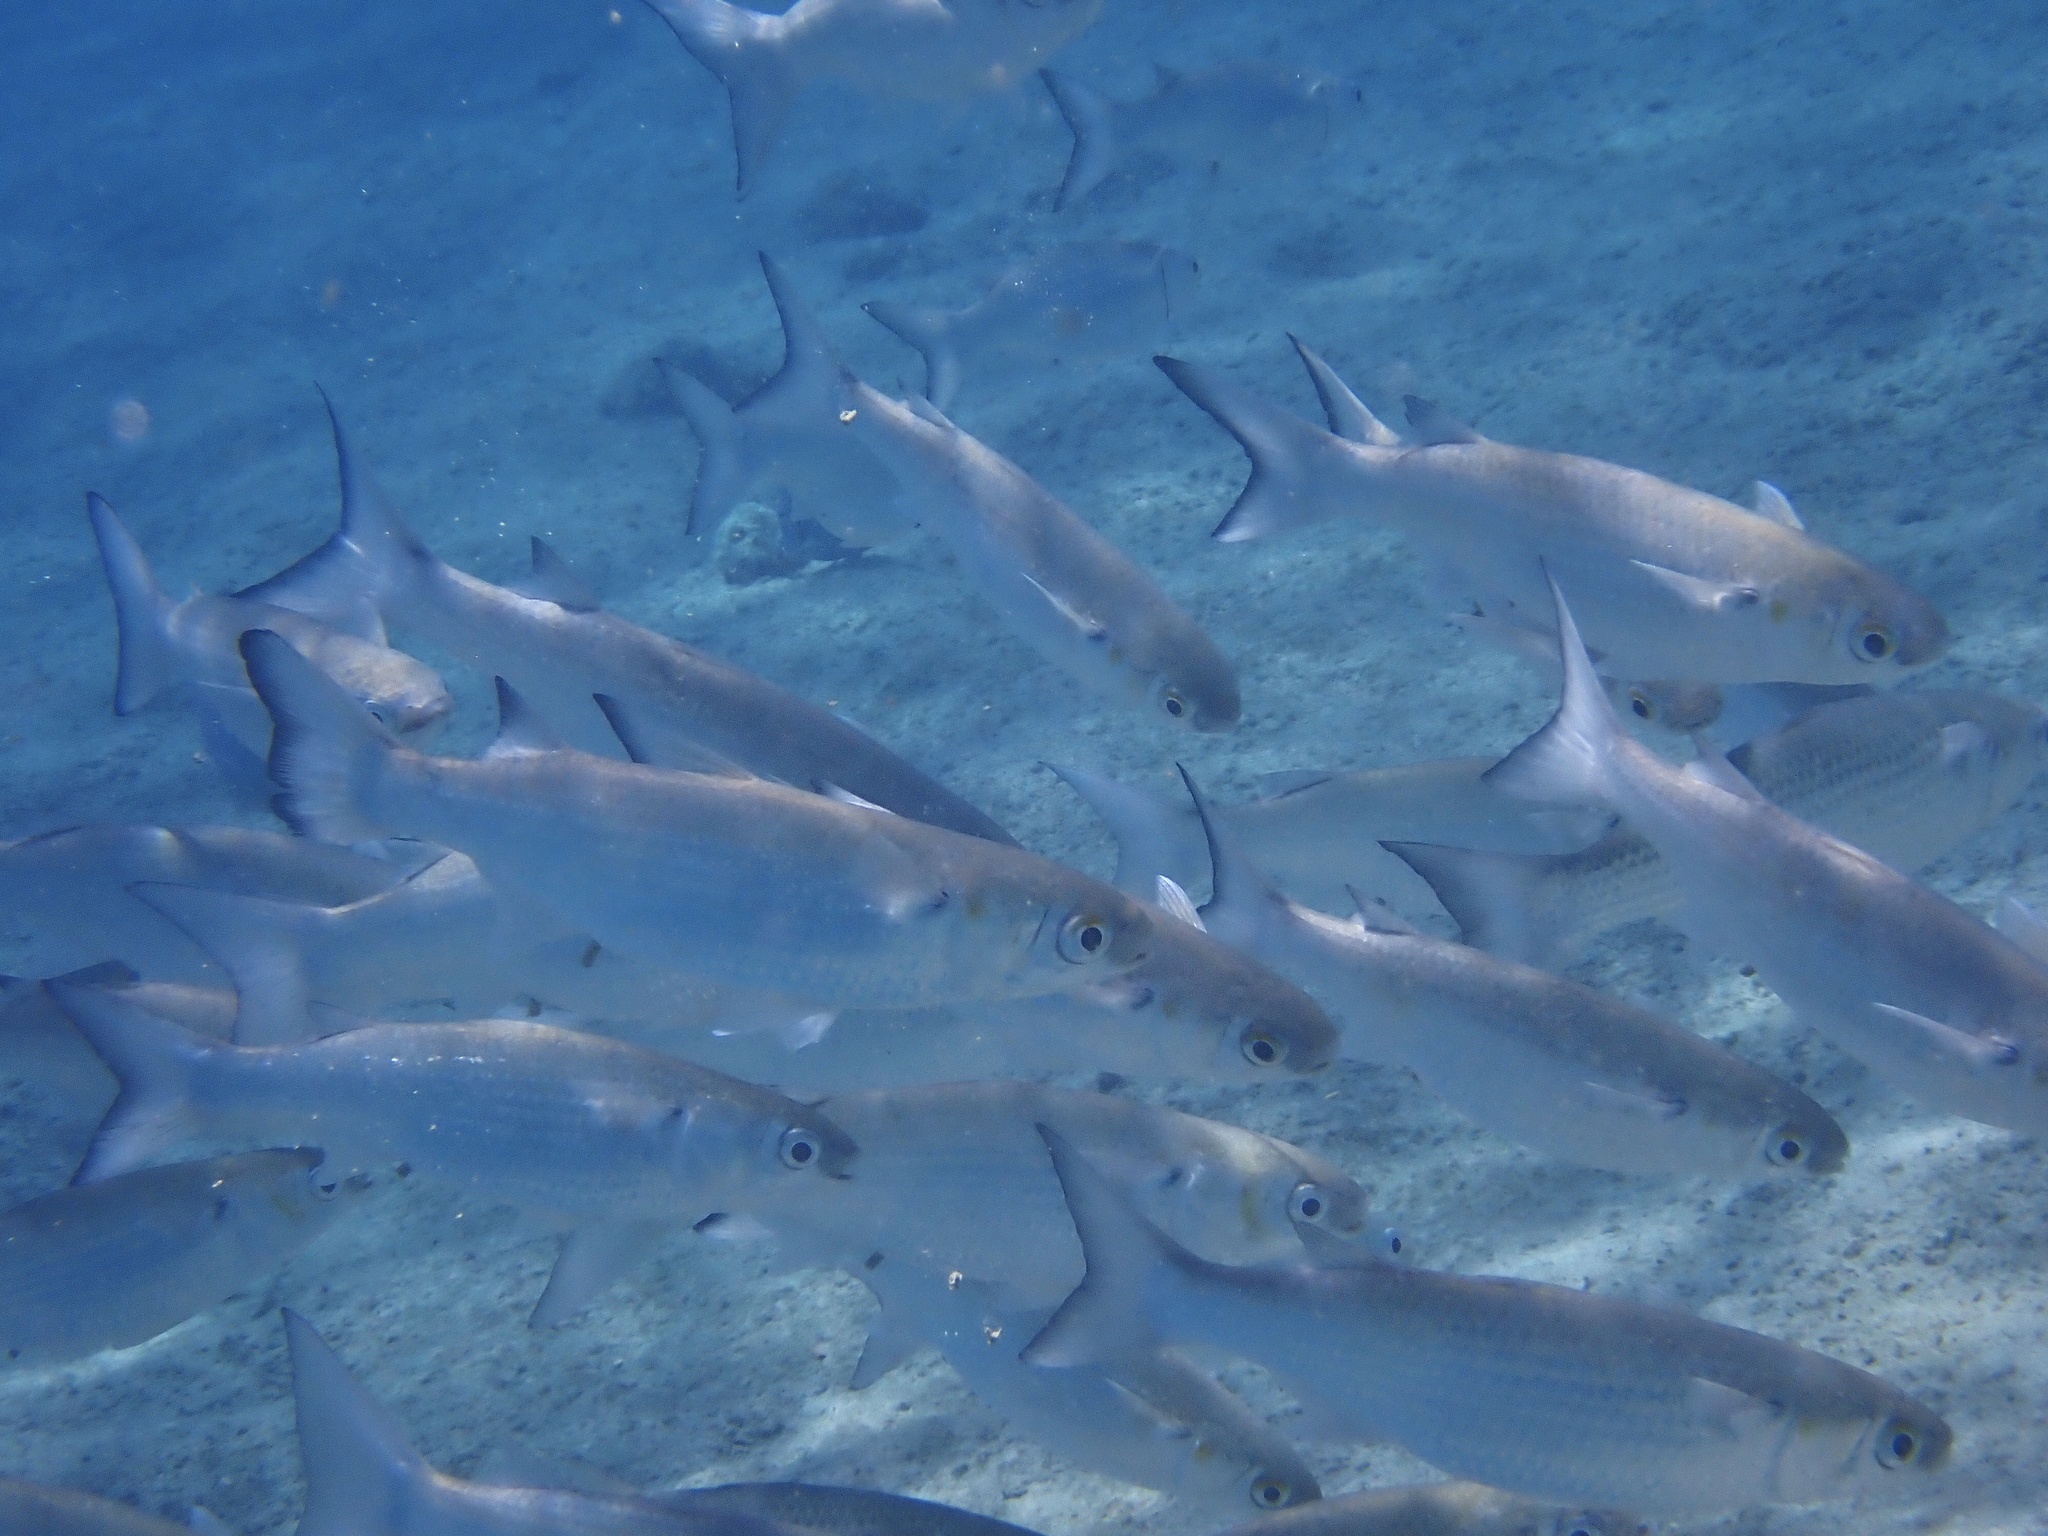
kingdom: Animalia
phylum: Chordata
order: Mugiliformes
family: Mugilidae
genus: Mugil
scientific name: Mugil curema
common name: White mullet
